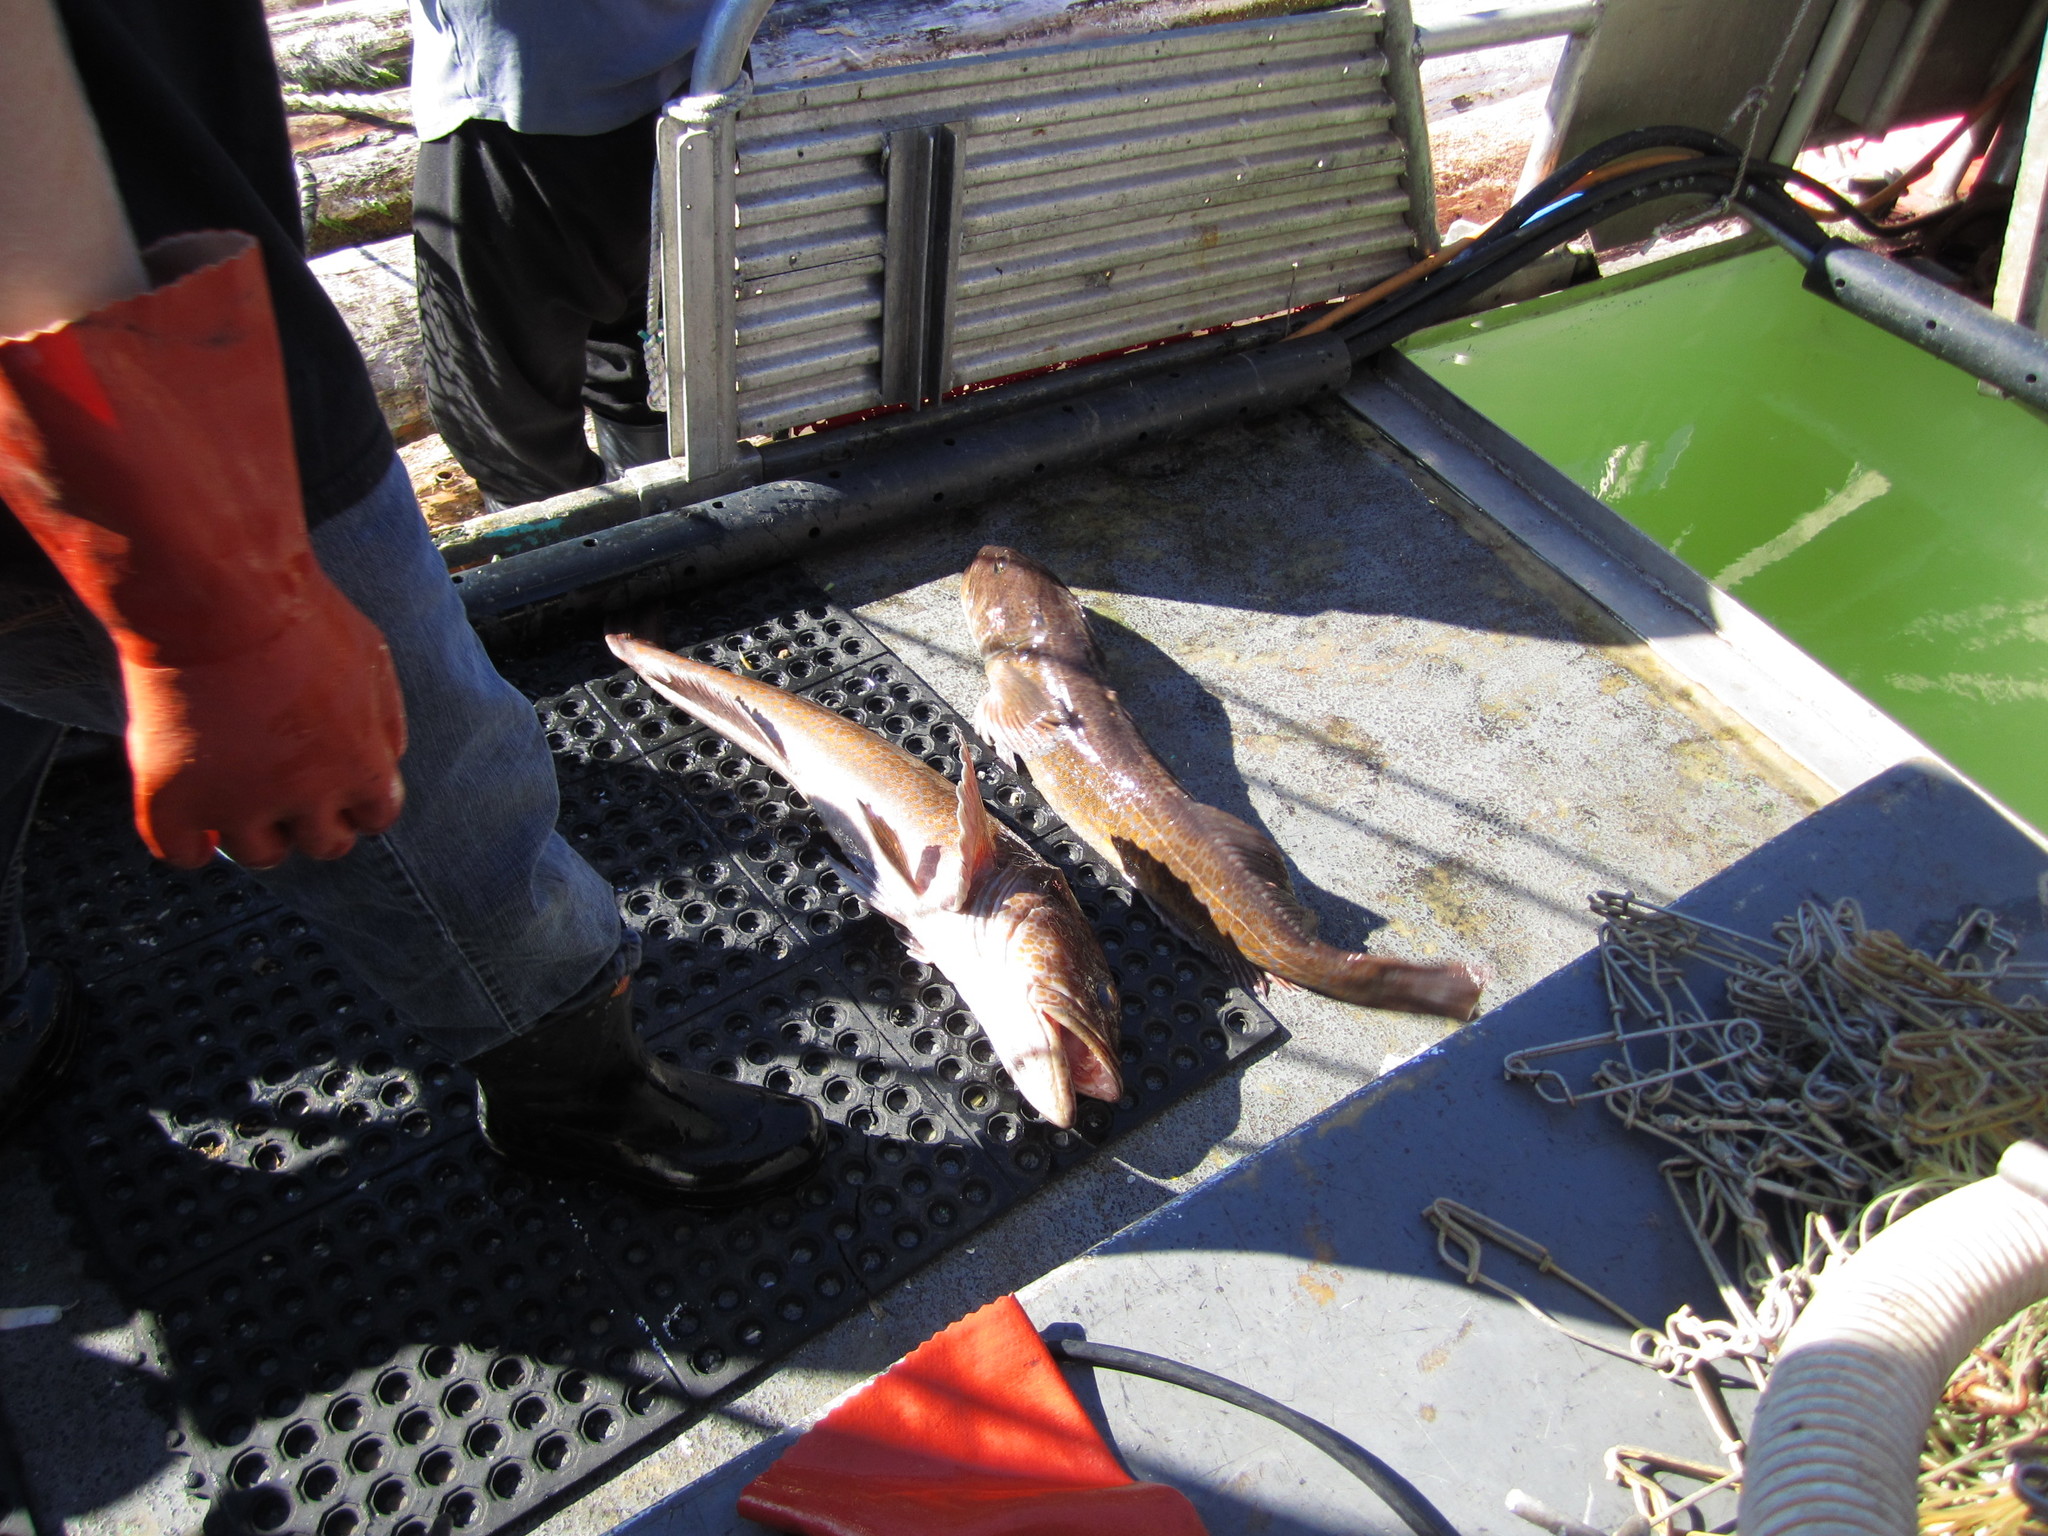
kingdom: Animalia
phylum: Chordata
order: Scorpaeniformes
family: Hexagrammidae
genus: Ophiodon
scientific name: Ophiodon elongatus
